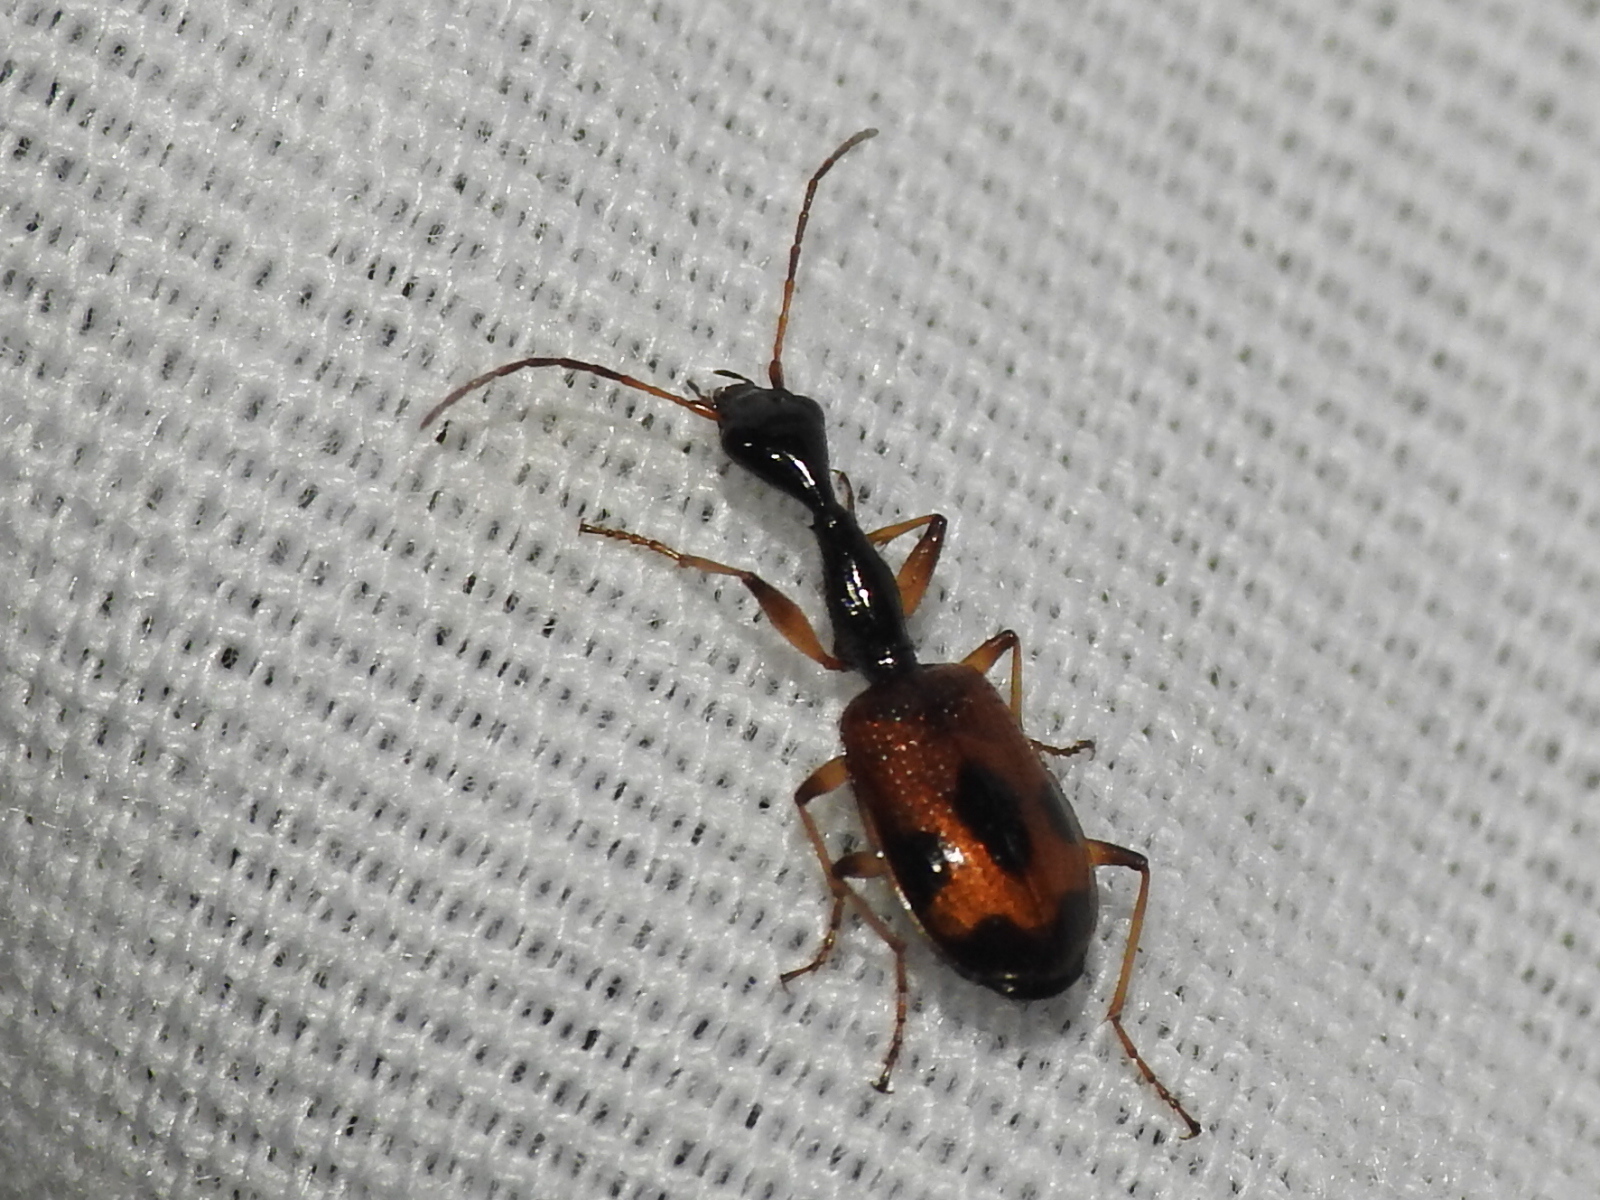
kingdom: Animalia
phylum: Arthropoda
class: Insecta
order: Coleoptera
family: Carabidae
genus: Colliuris
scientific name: Colliuris pensylvanica
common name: Long-necked ground beetle
